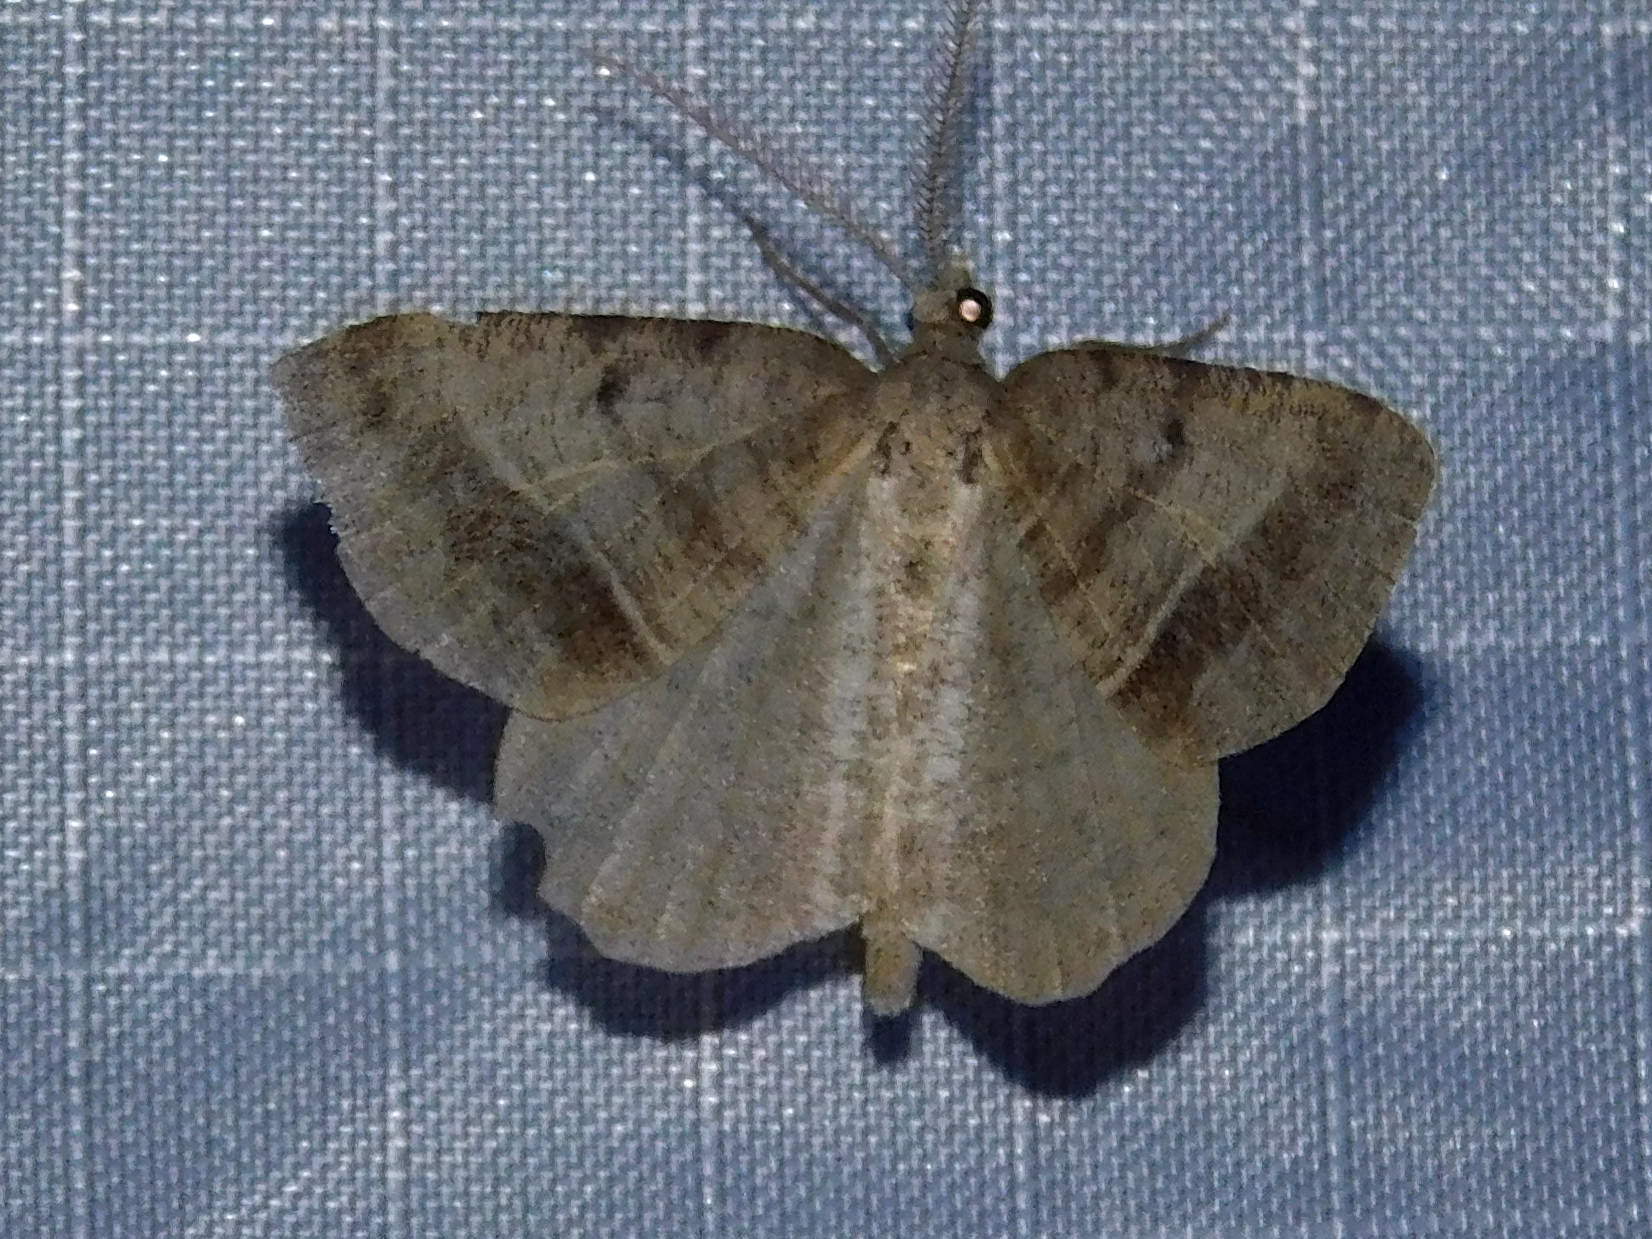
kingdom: Animalia
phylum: Arthropoda
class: Insecta
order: Lepidoptera
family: Geometridae
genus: Macaria
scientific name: Macaria artesiaria
